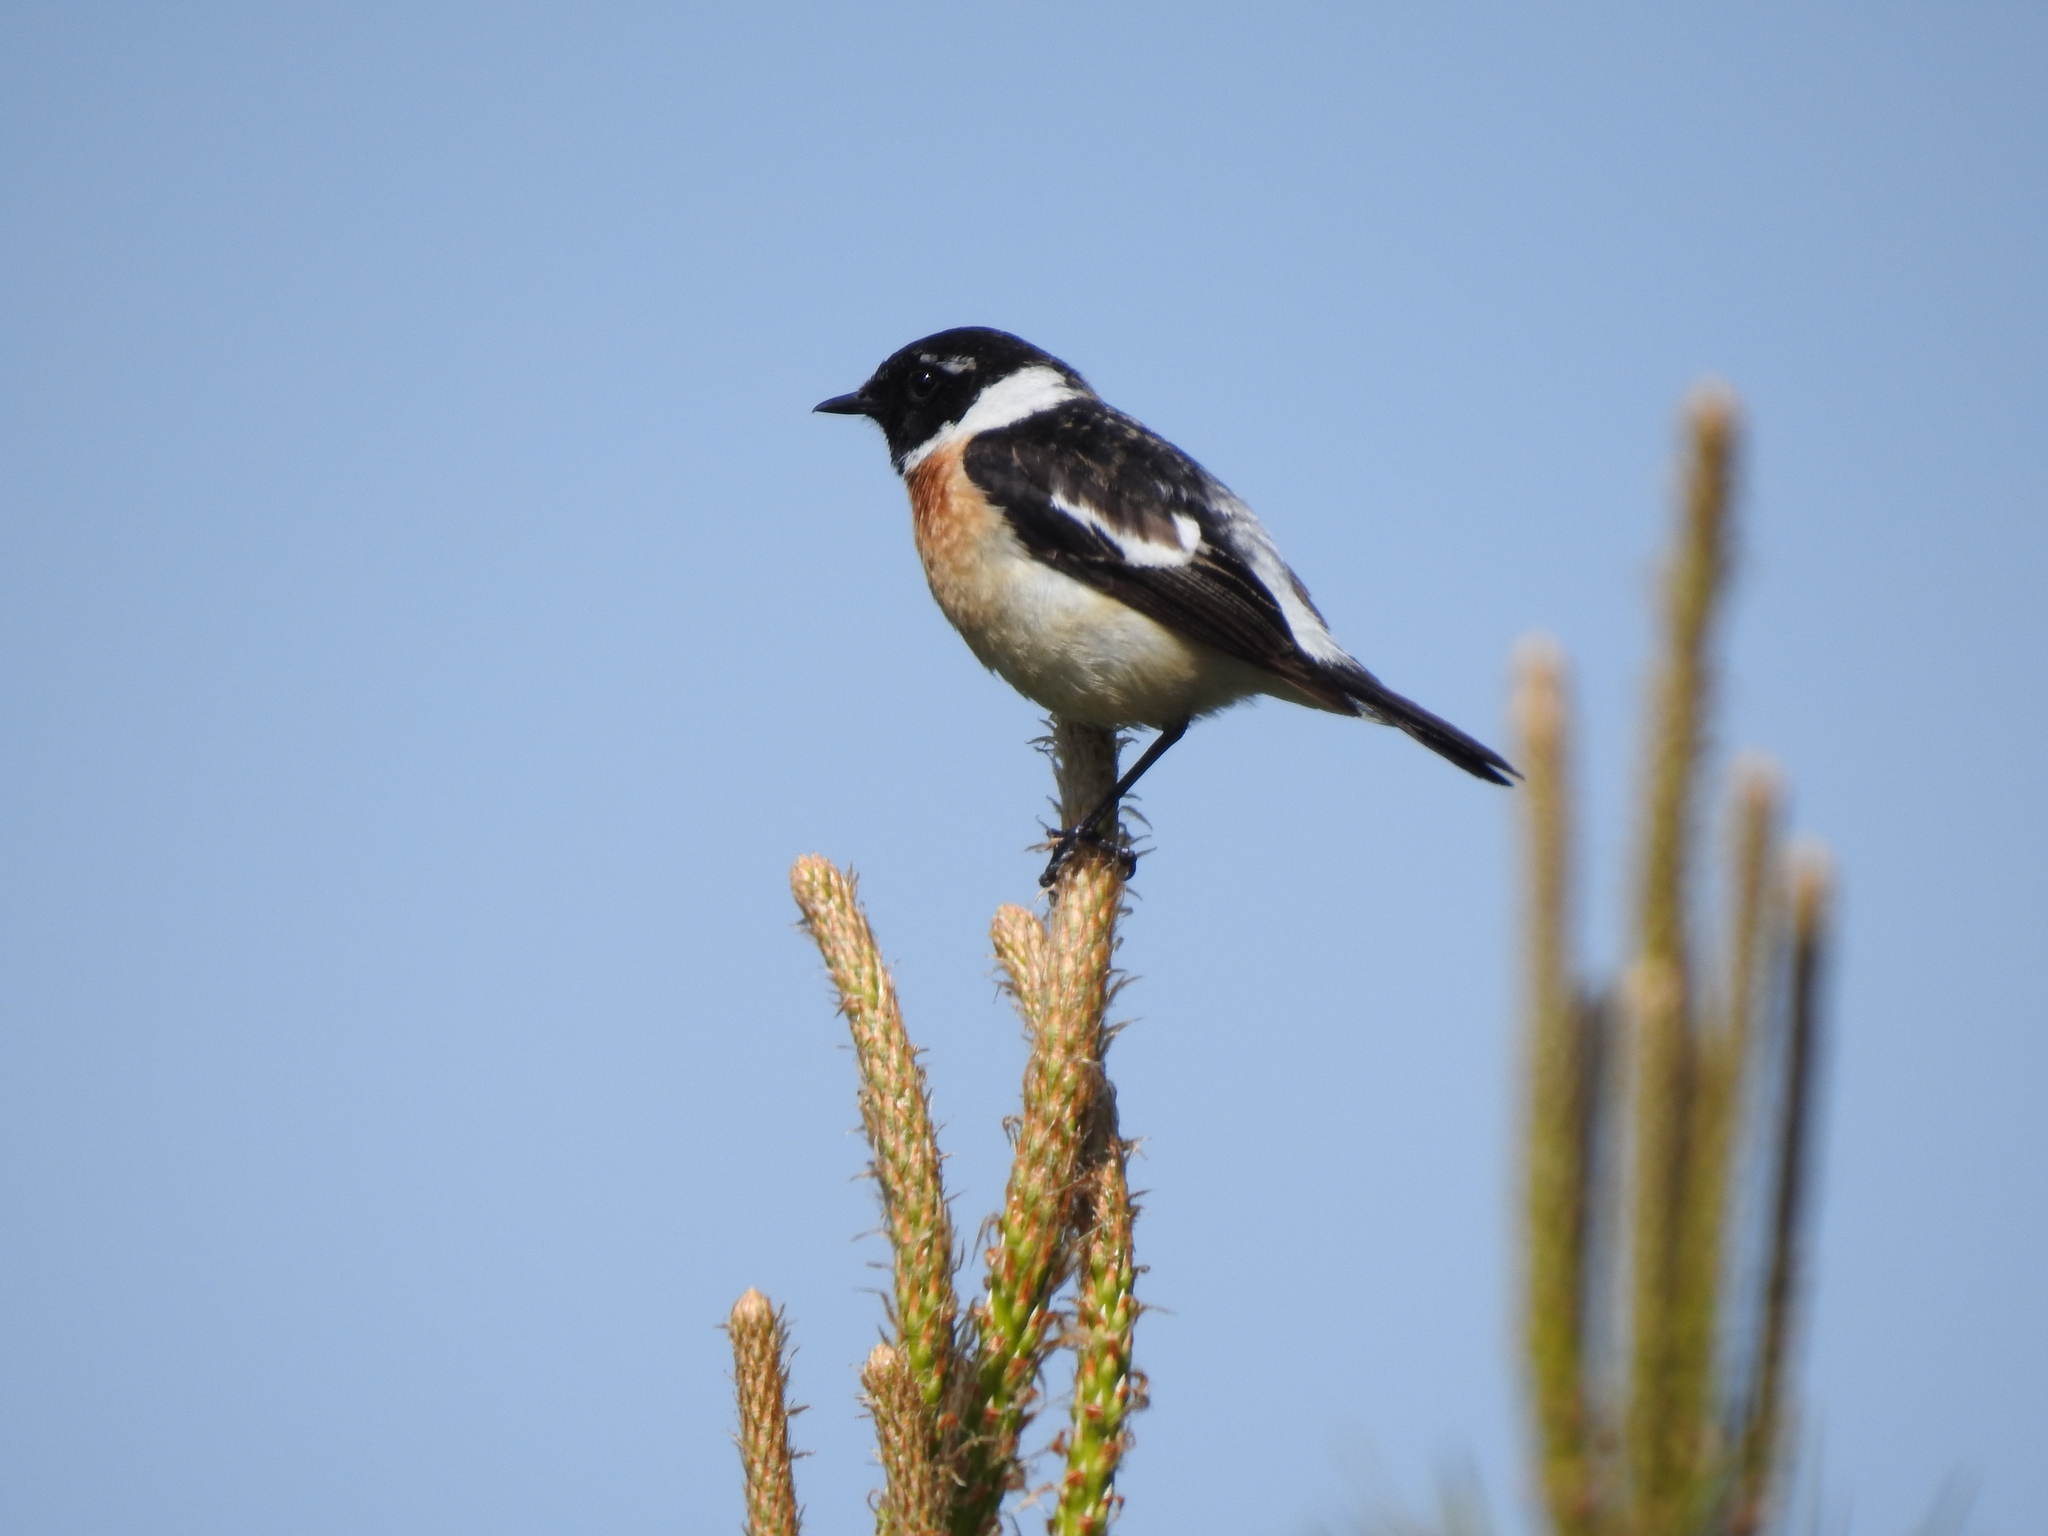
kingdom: Animalia
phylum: Chordata
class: Aves
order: Passeriformes
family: Muscicapidae
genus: Saxicola
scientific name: Saxicola maurus
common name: Siberian stonechat
